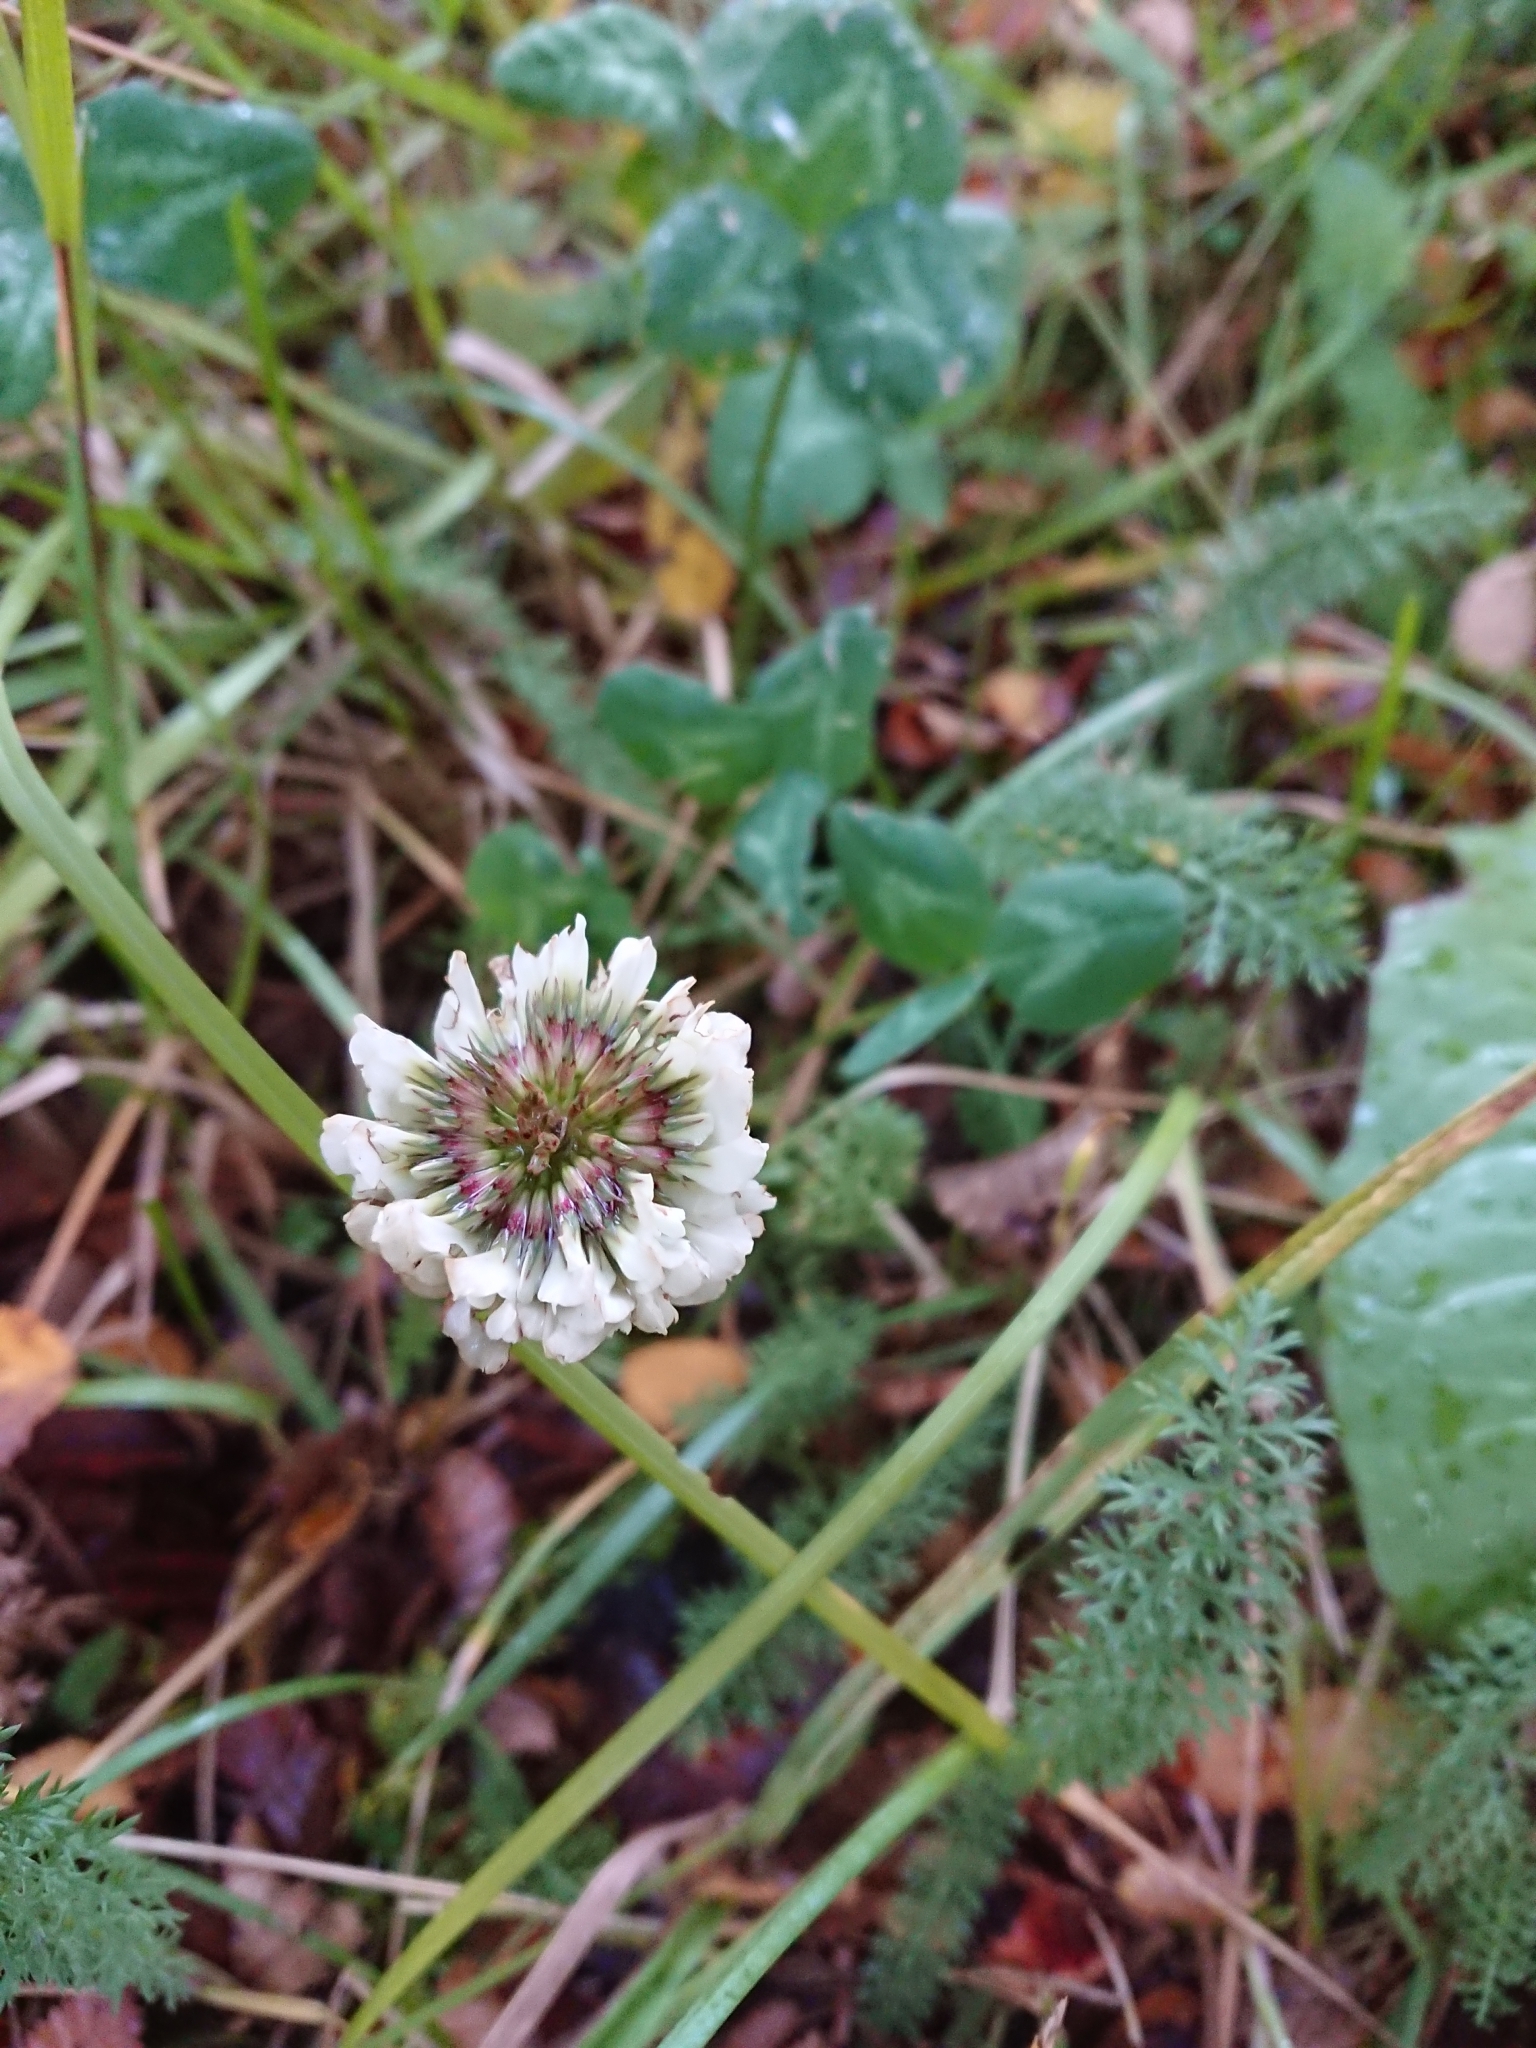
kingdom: Plantae
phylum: Tracheophyta
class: Magnoliopsida
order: Fabales
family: Fabaceae
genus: Trifolium
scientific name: Trifolium repens
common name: White clover
